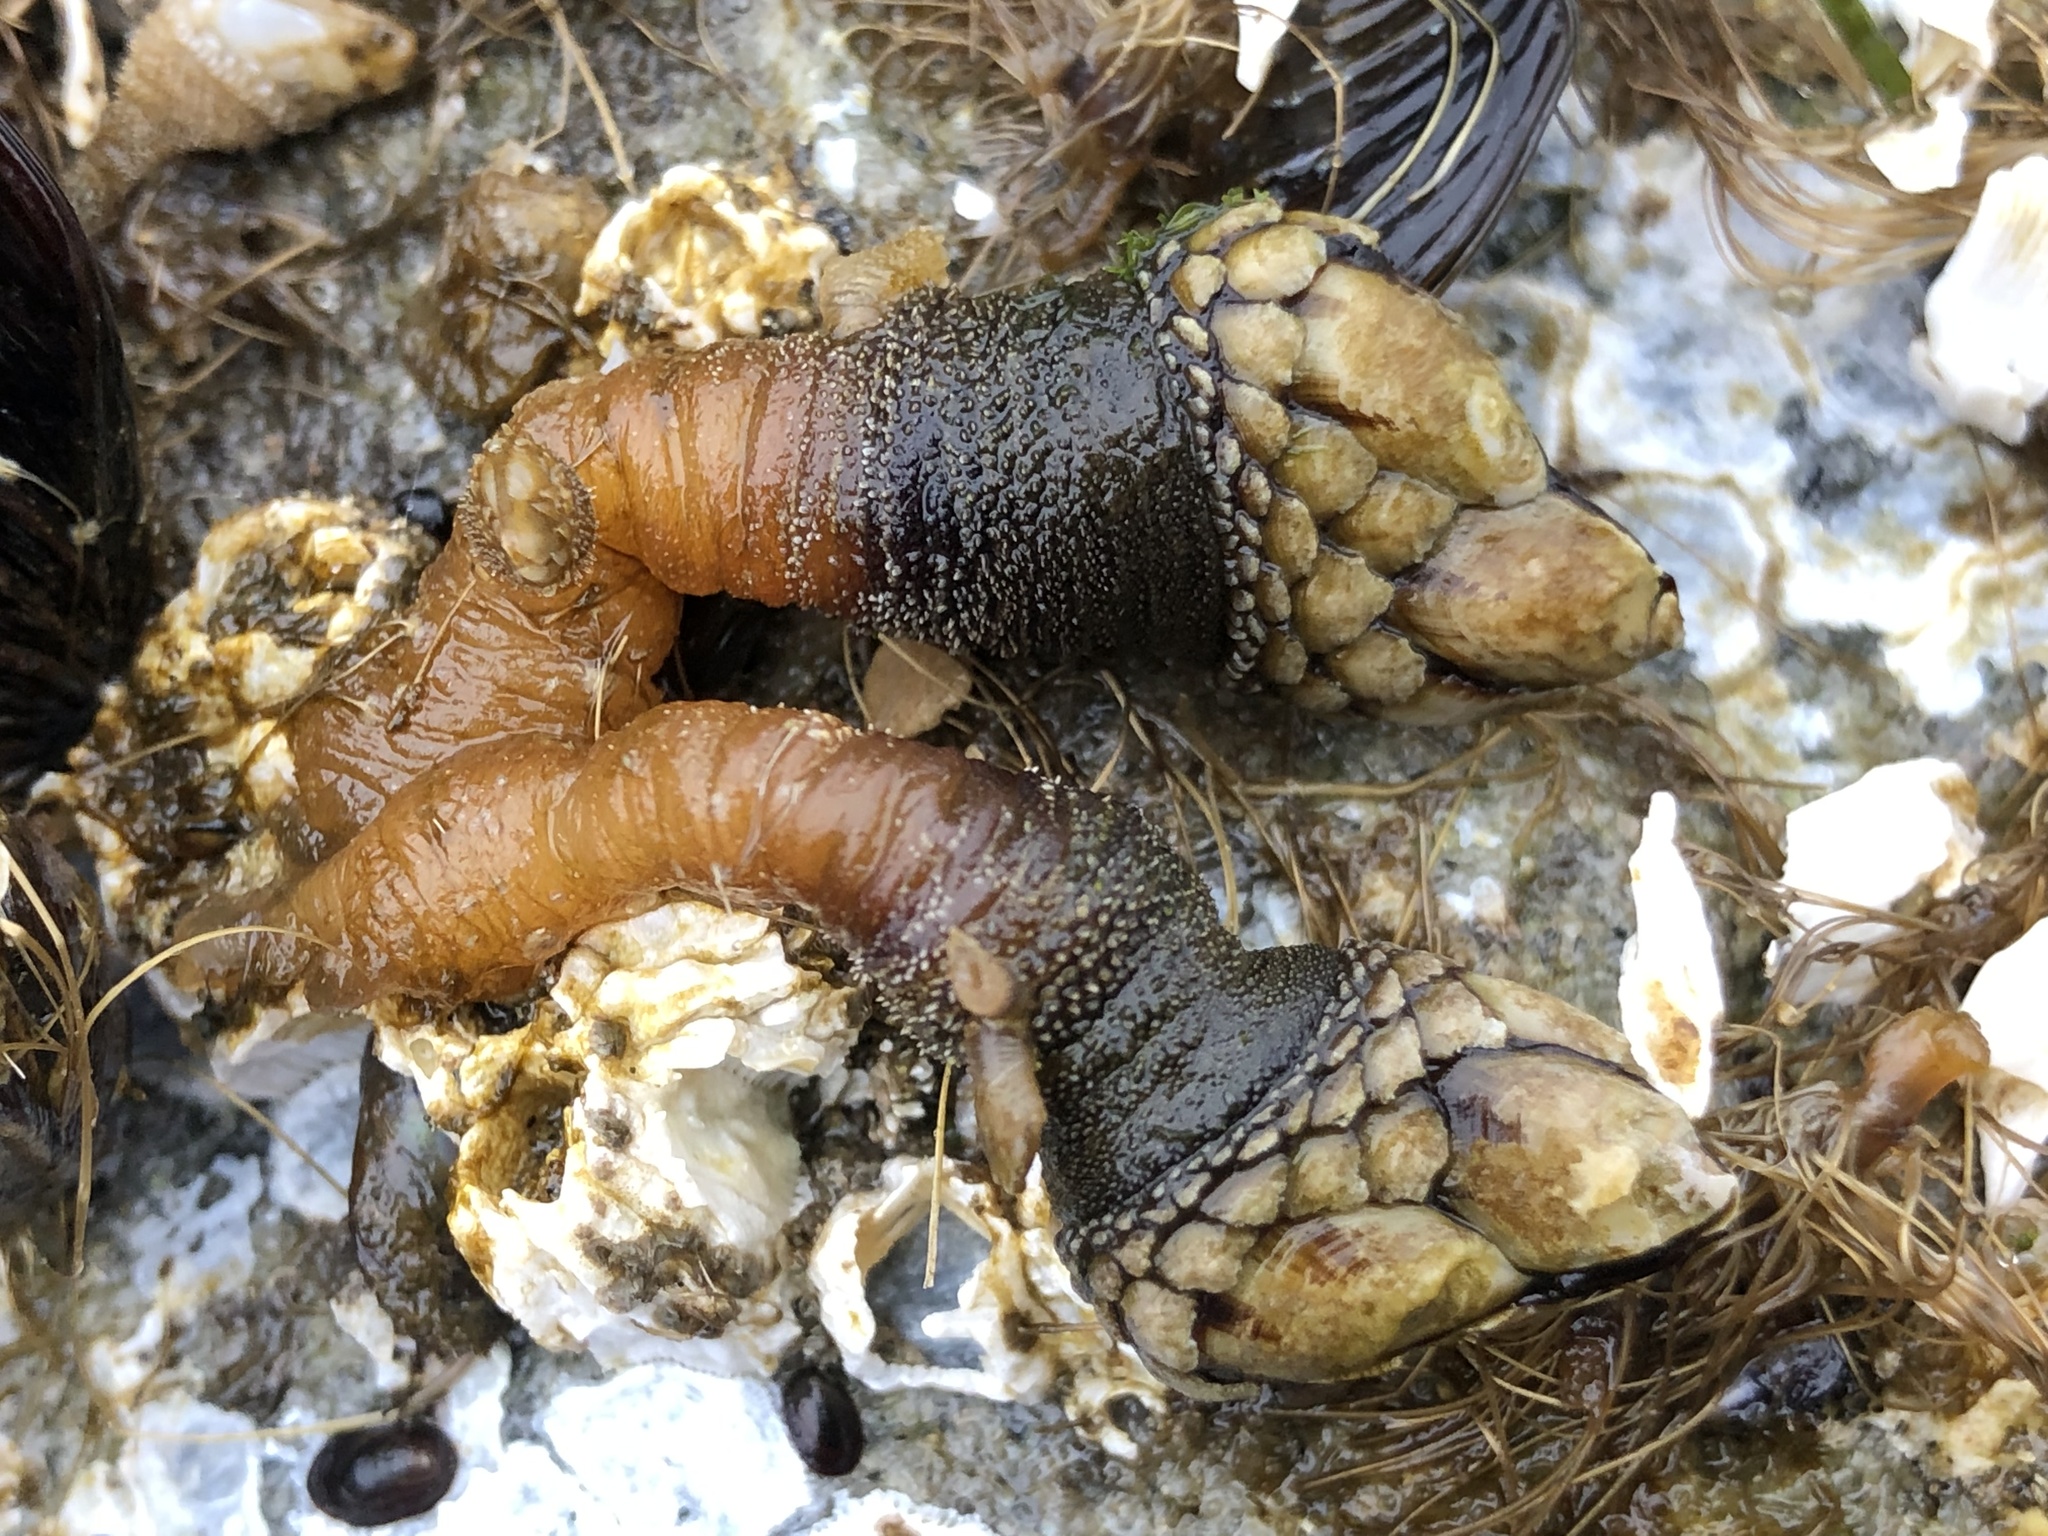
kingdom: Animalia
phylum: Arthropoda
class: Maxillopoda
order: Pedunculata
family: Pollicipedidae
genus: Pollicipes
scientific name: Pollicipes polymerus
